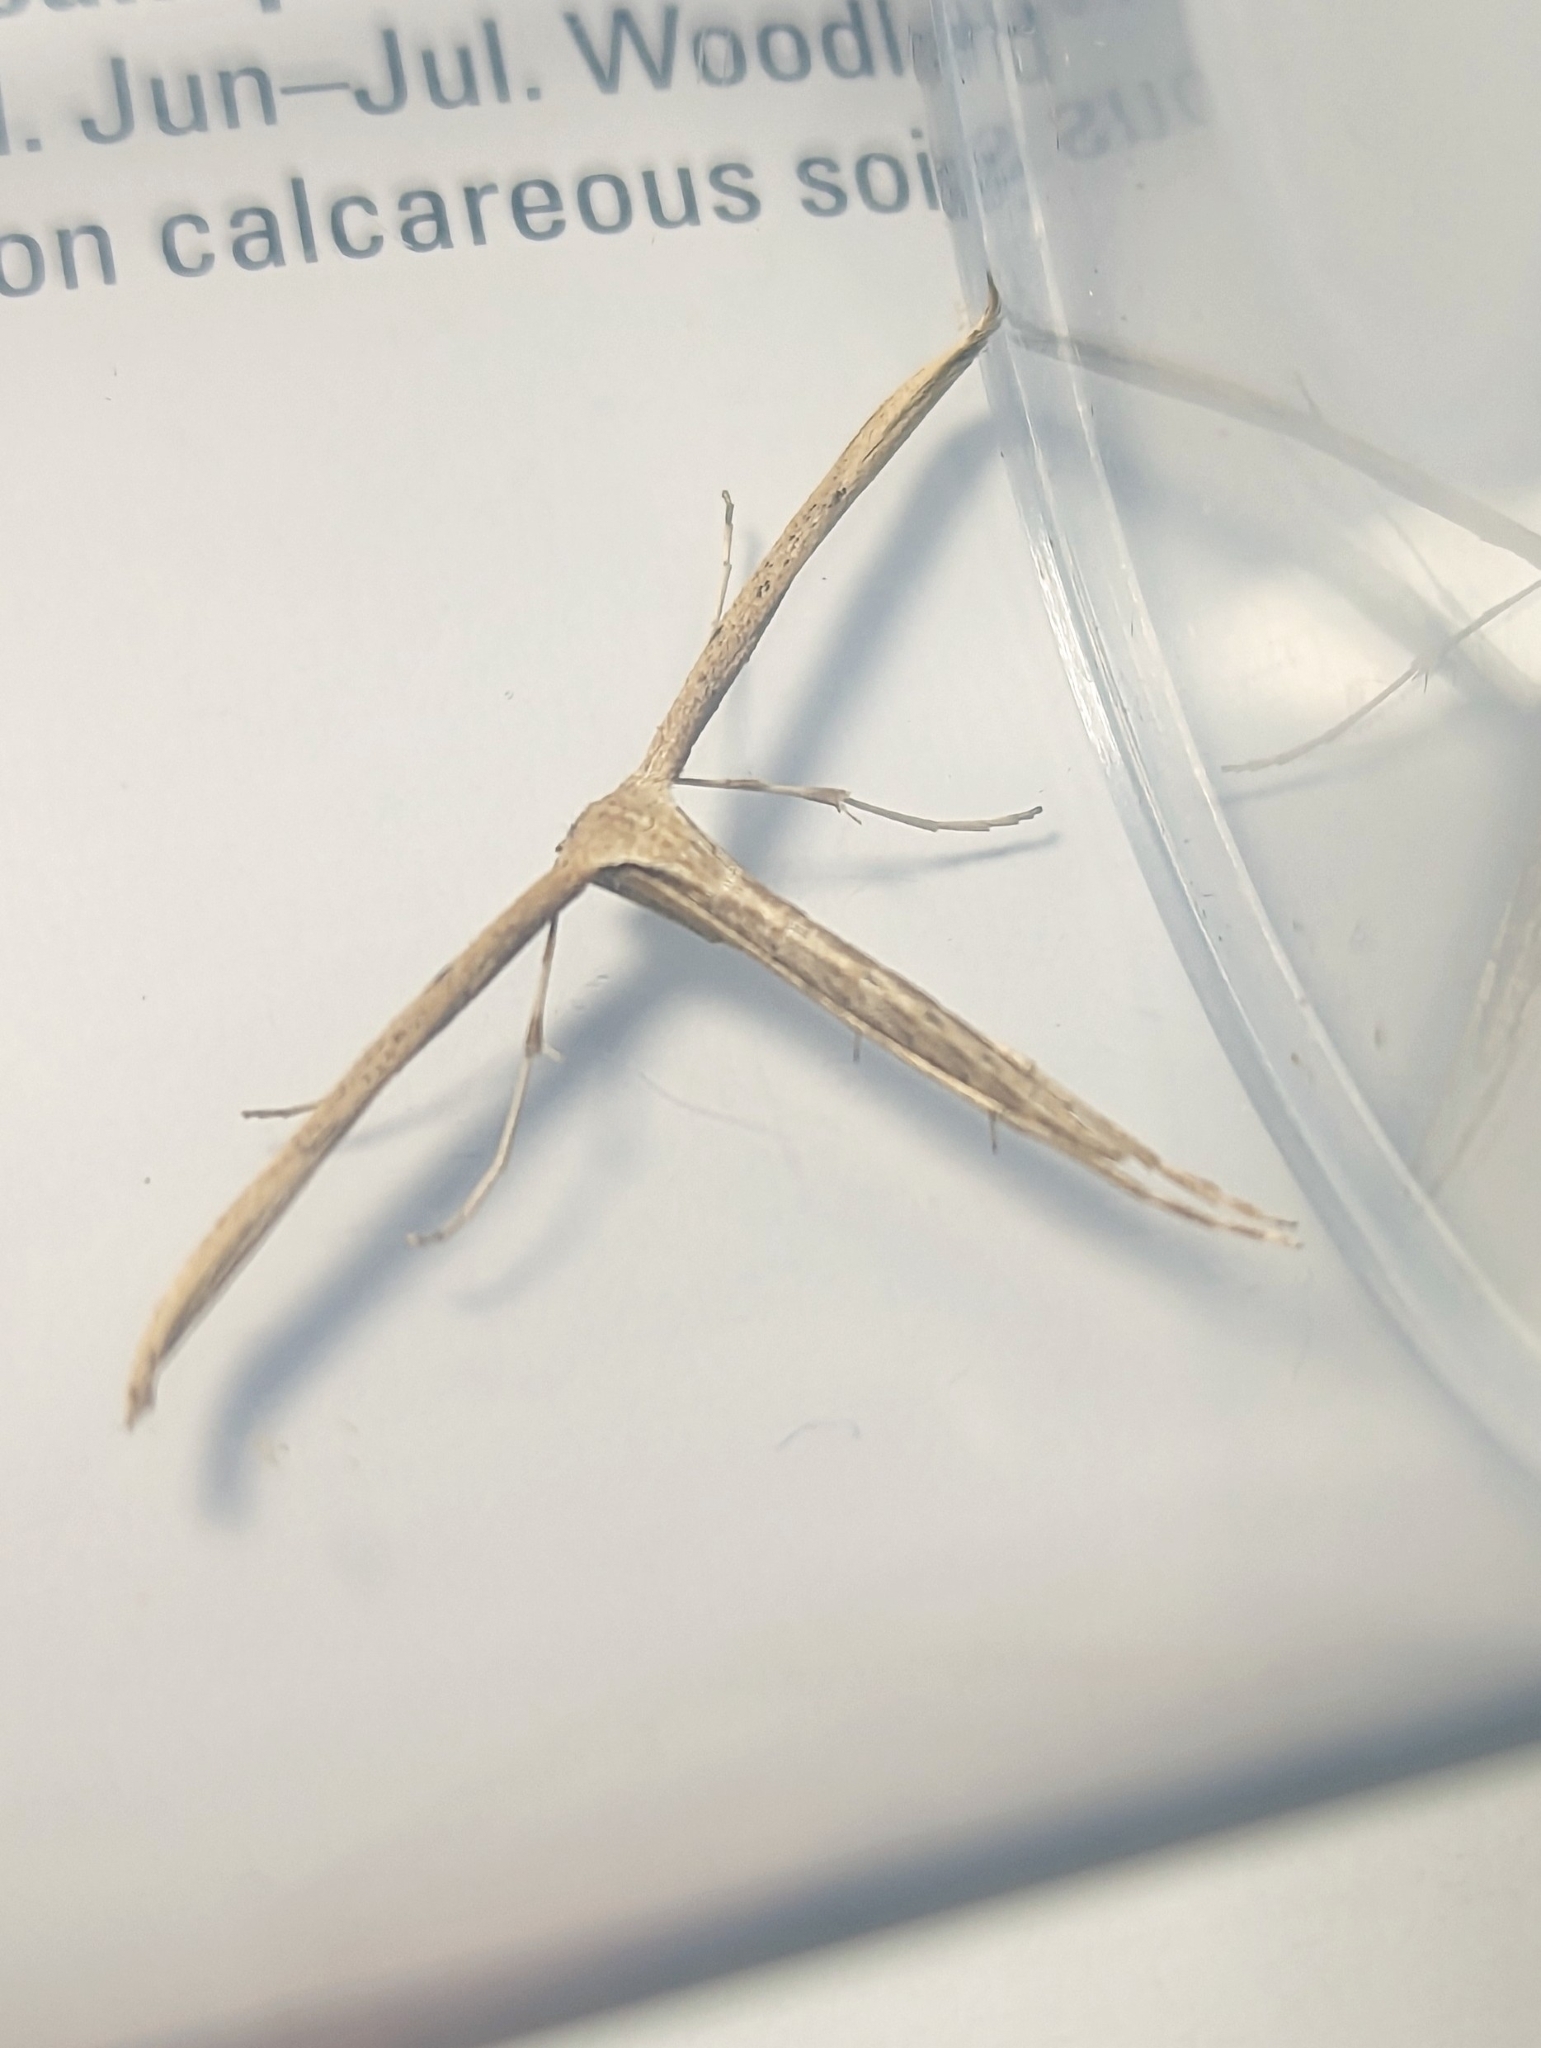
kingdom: Animalia
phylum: Arthropoda
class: Insecta
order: Lepidoptera
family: Pterophoridae
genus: Emmelina
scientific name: Emmelina monodactyla
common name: Common plume
